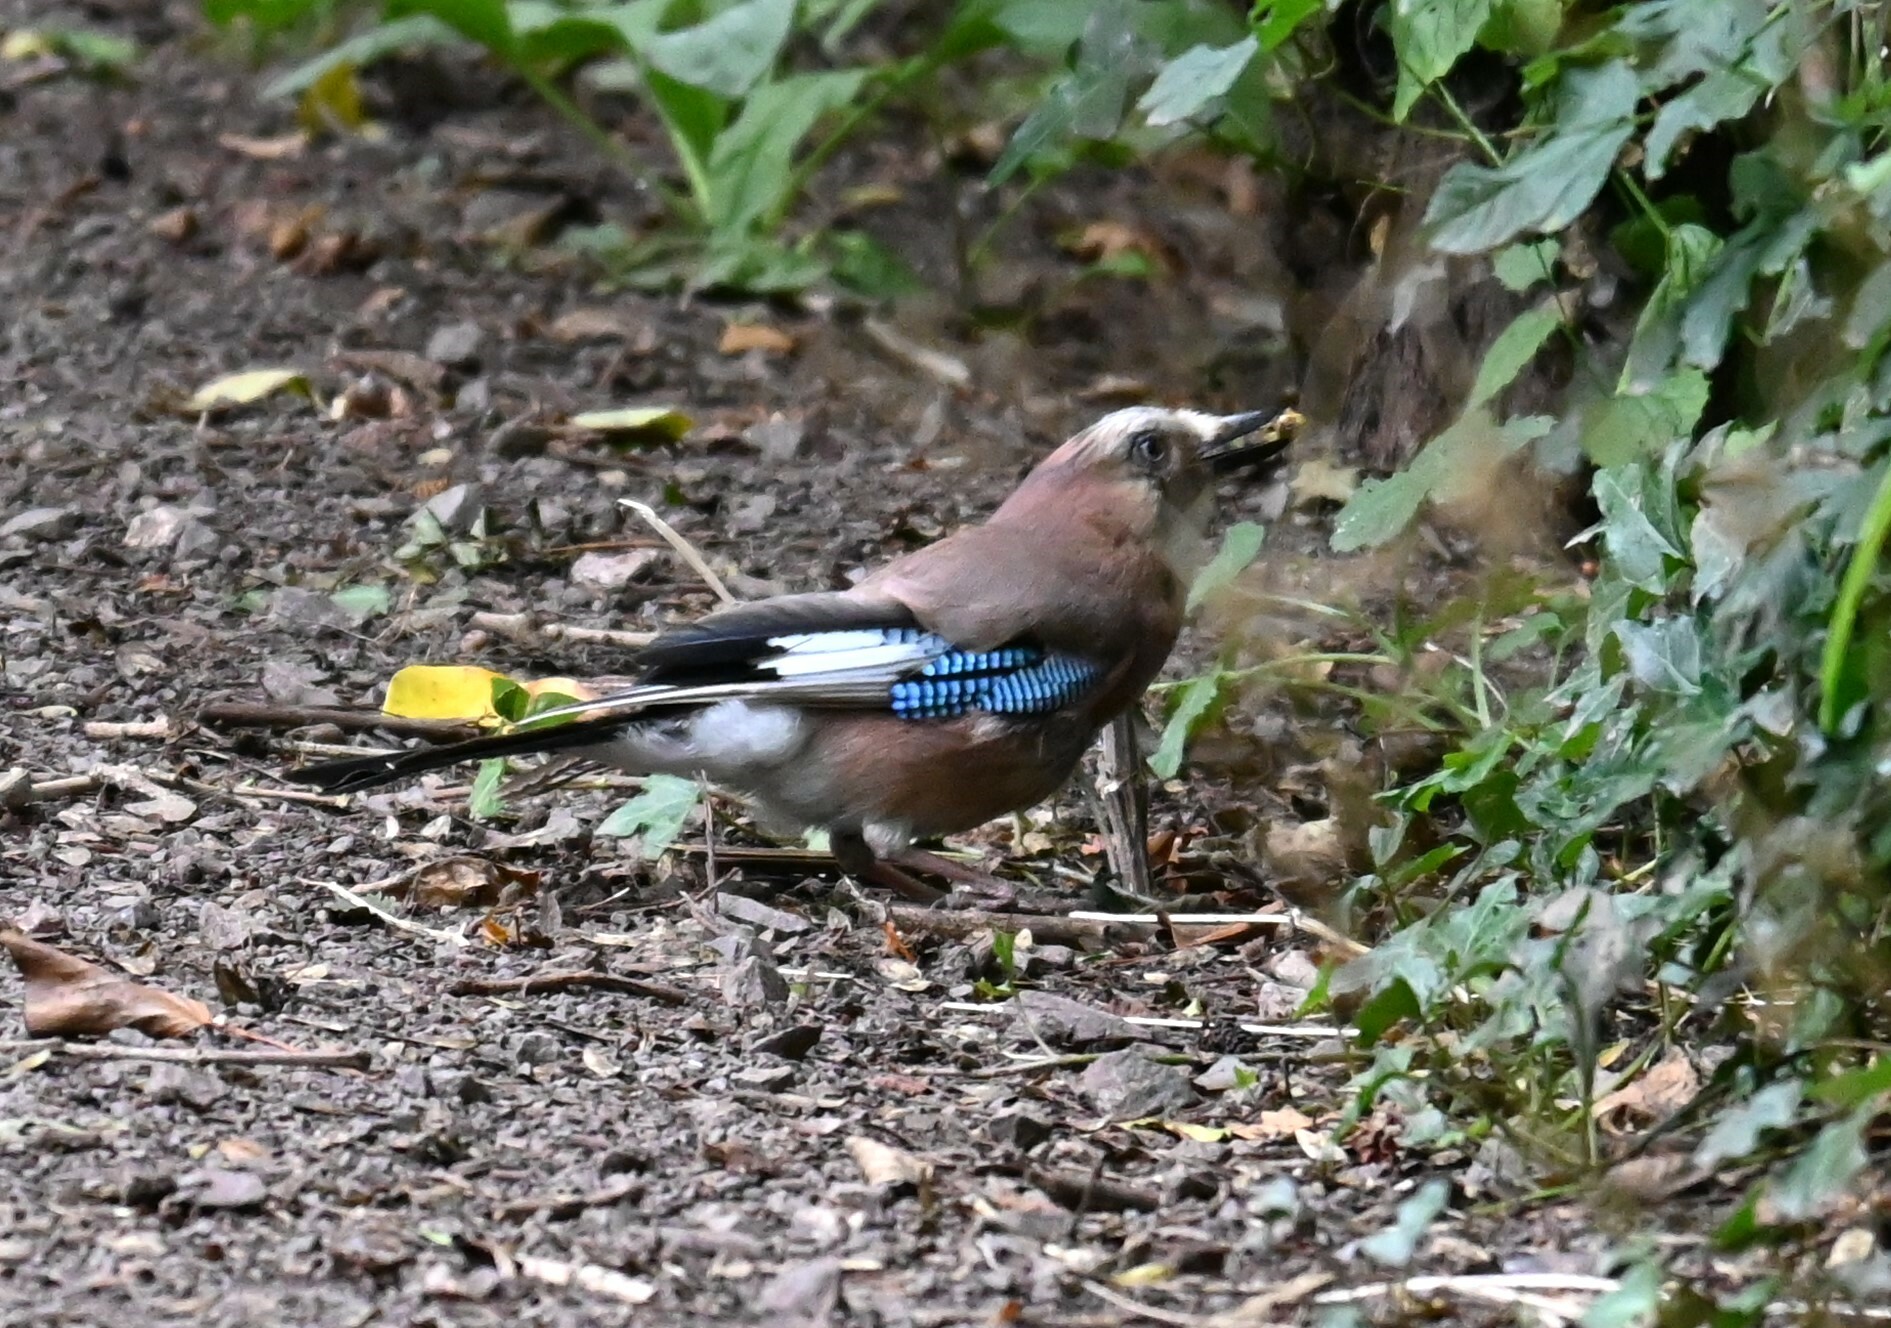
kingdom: Animalia
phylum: Chordata
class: Aves
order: Passeriformes
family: Corvidae
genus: Garrulus
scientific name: Garrulus glandarius
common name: Eurasian jay
